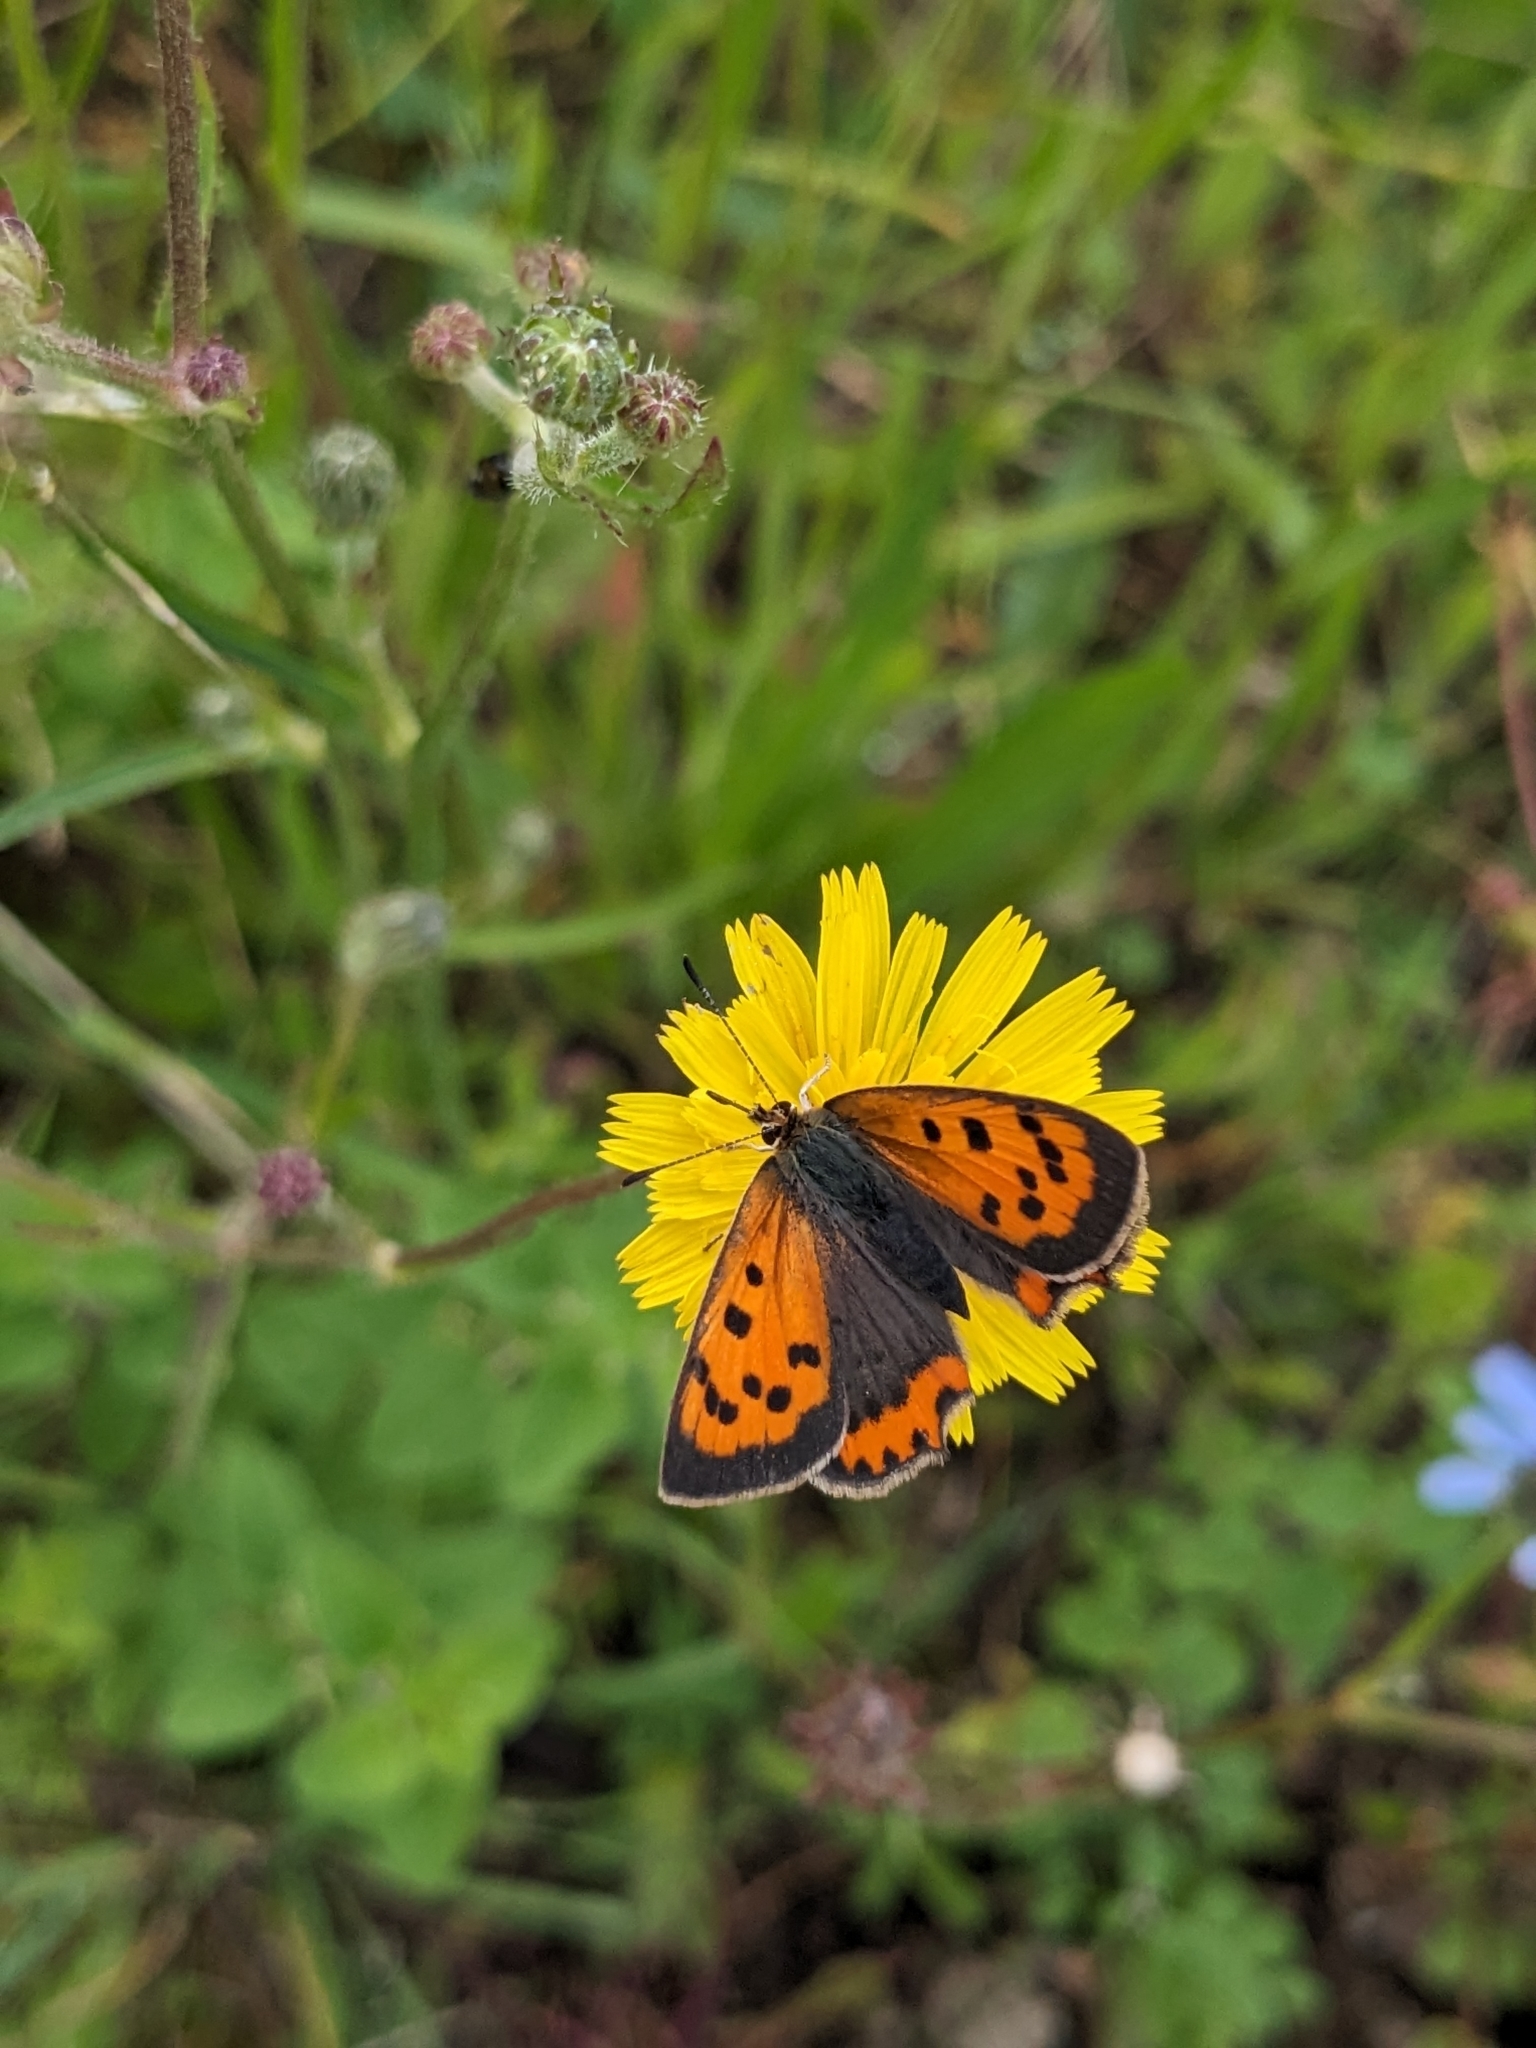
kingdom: Animalia
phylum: Arthropoda
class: Insecta
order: Lepidoptera
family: Lycaenidae
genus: Lycaena
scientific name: Lycaena phlaeas
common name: Small copper
